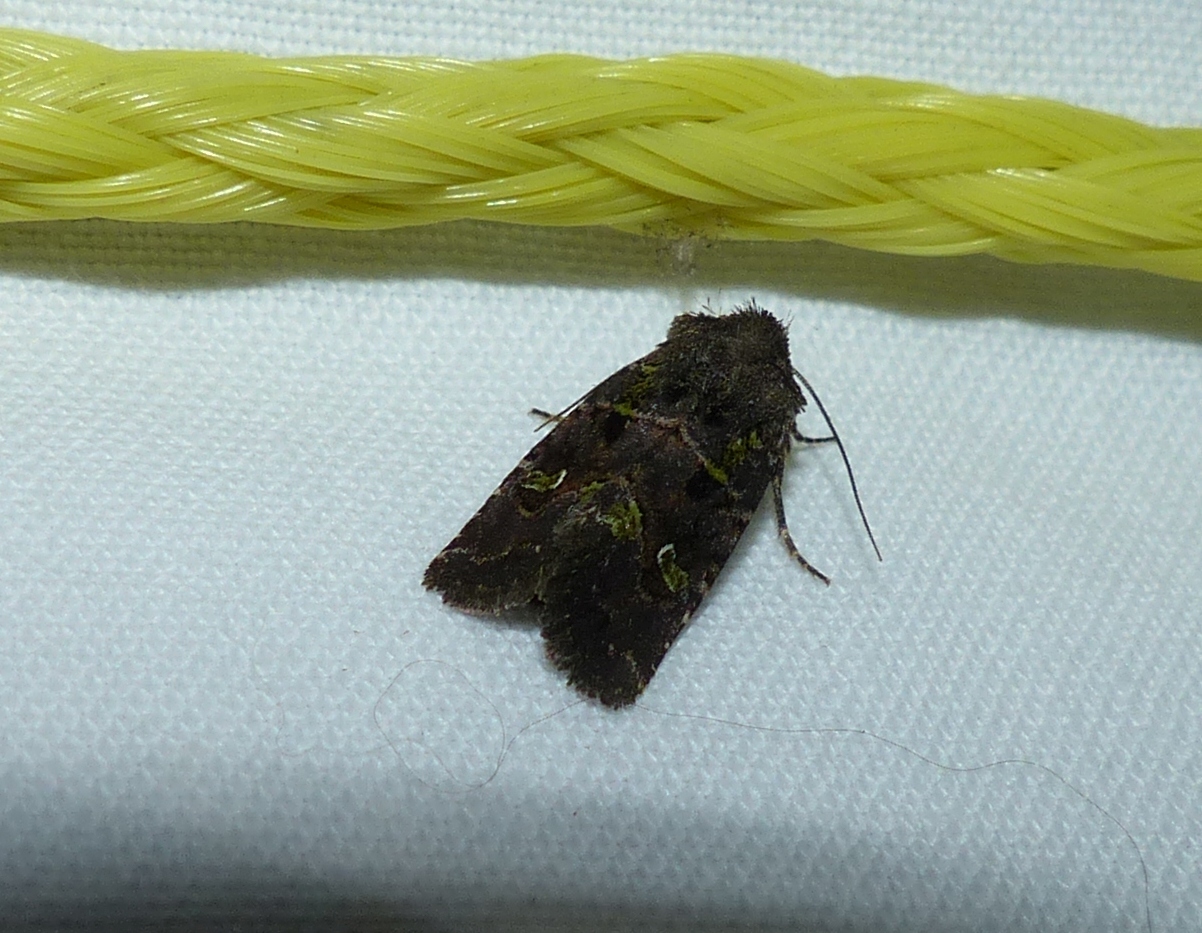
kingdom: Animalia
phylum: Arthropoda
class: Insecta
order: Lepidoptera
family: Noctuidae
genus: Lacinipolia
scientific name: Lacinipolia renigera
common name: Kidney-spotted minor
